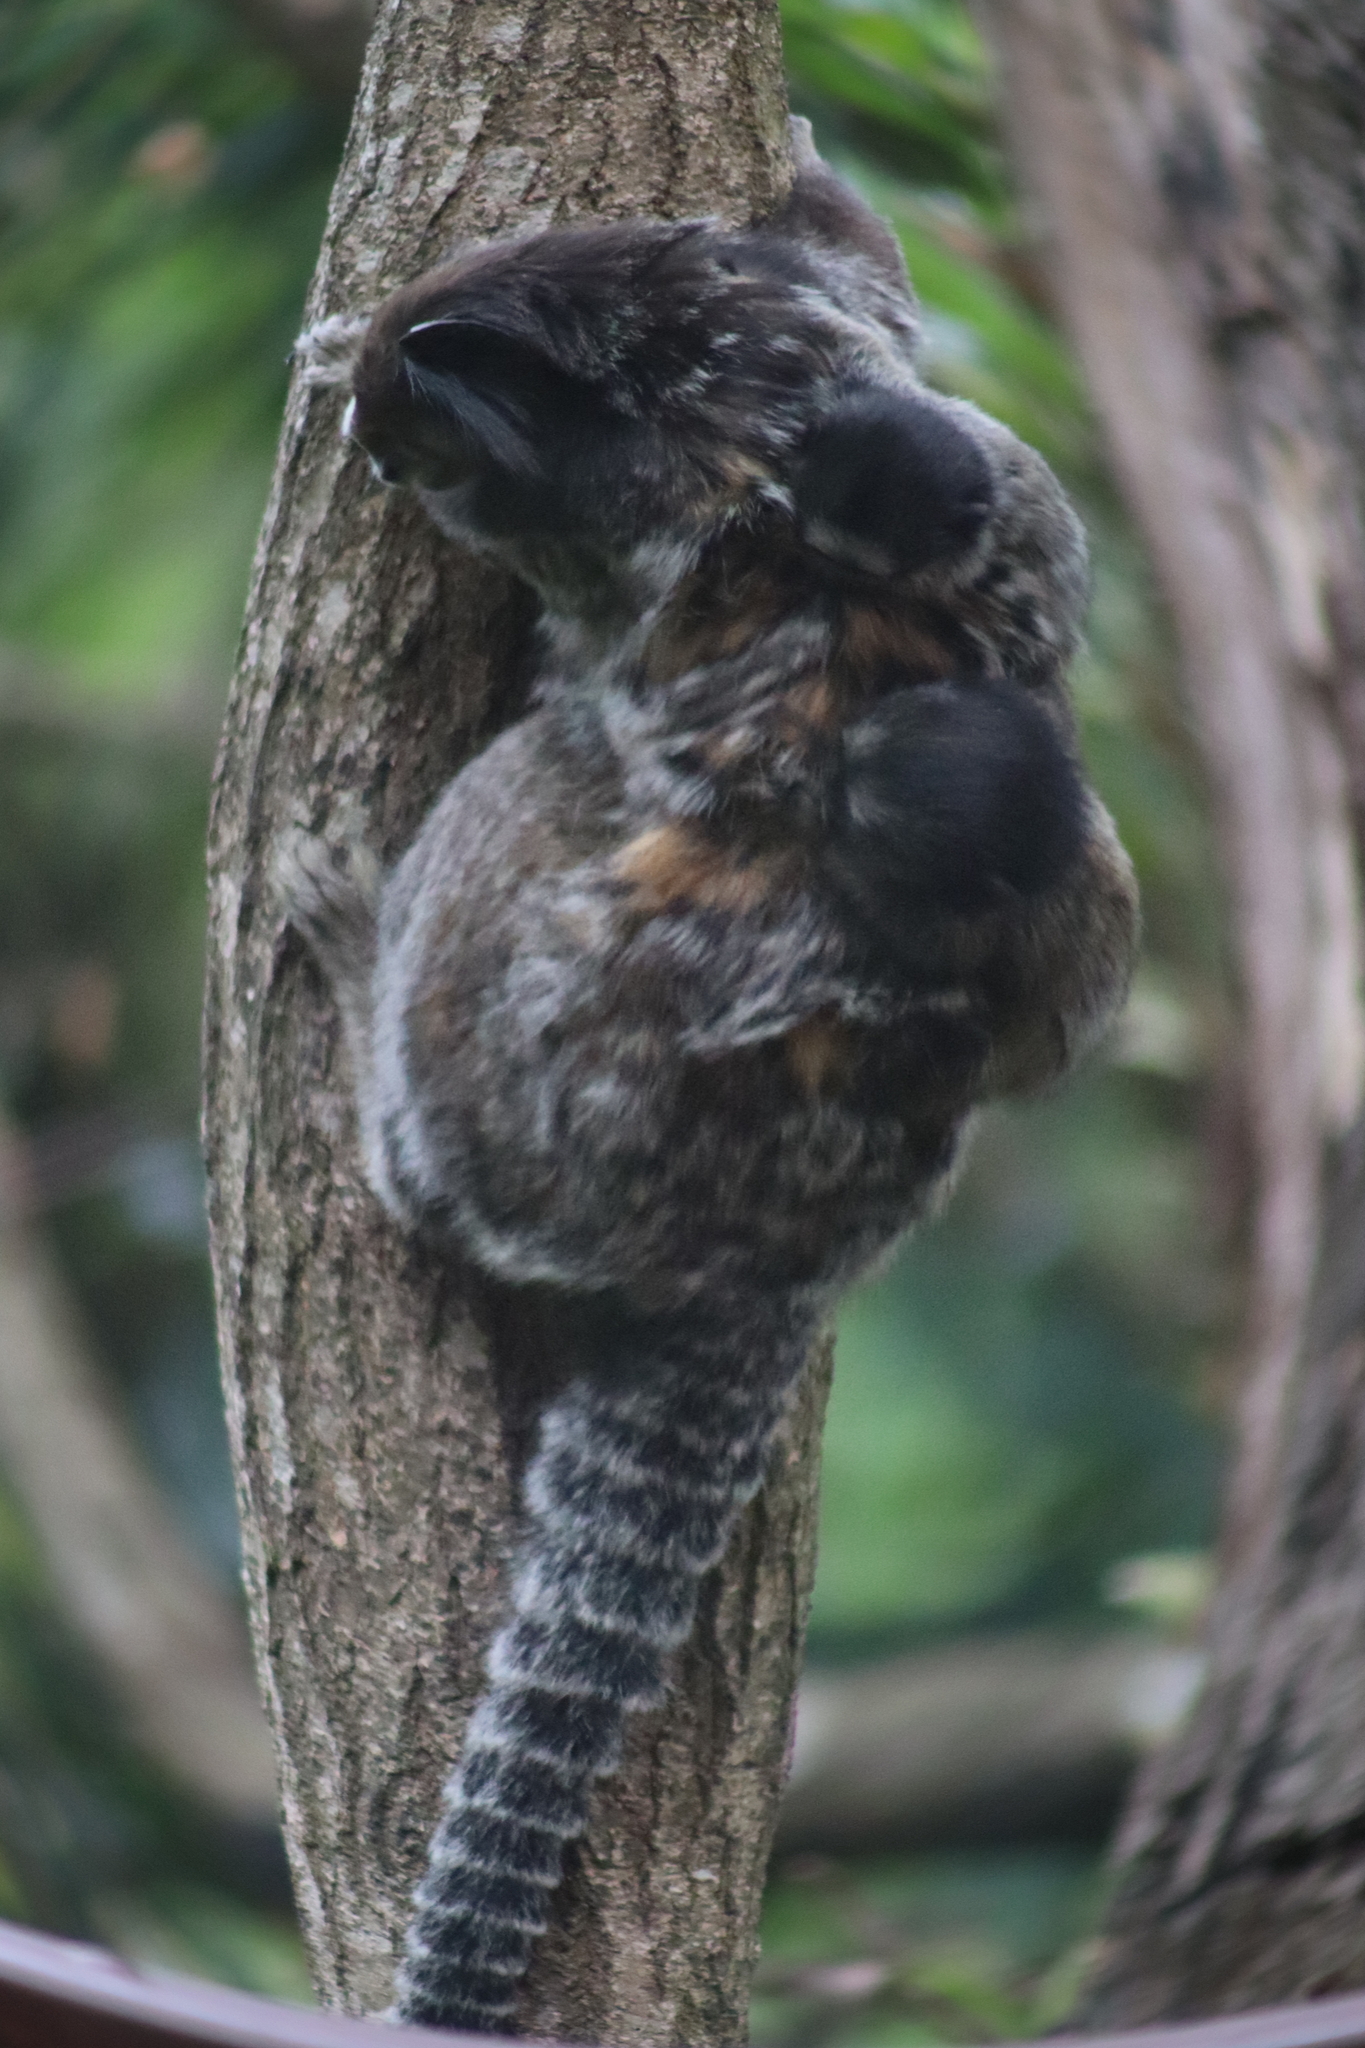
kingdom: Animalia
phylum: Chordata
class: Mammalia
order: Primates
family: Callitrichidae
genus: Callithrix
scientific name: Callithrix penicillata
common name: Black-tufted marmoset
